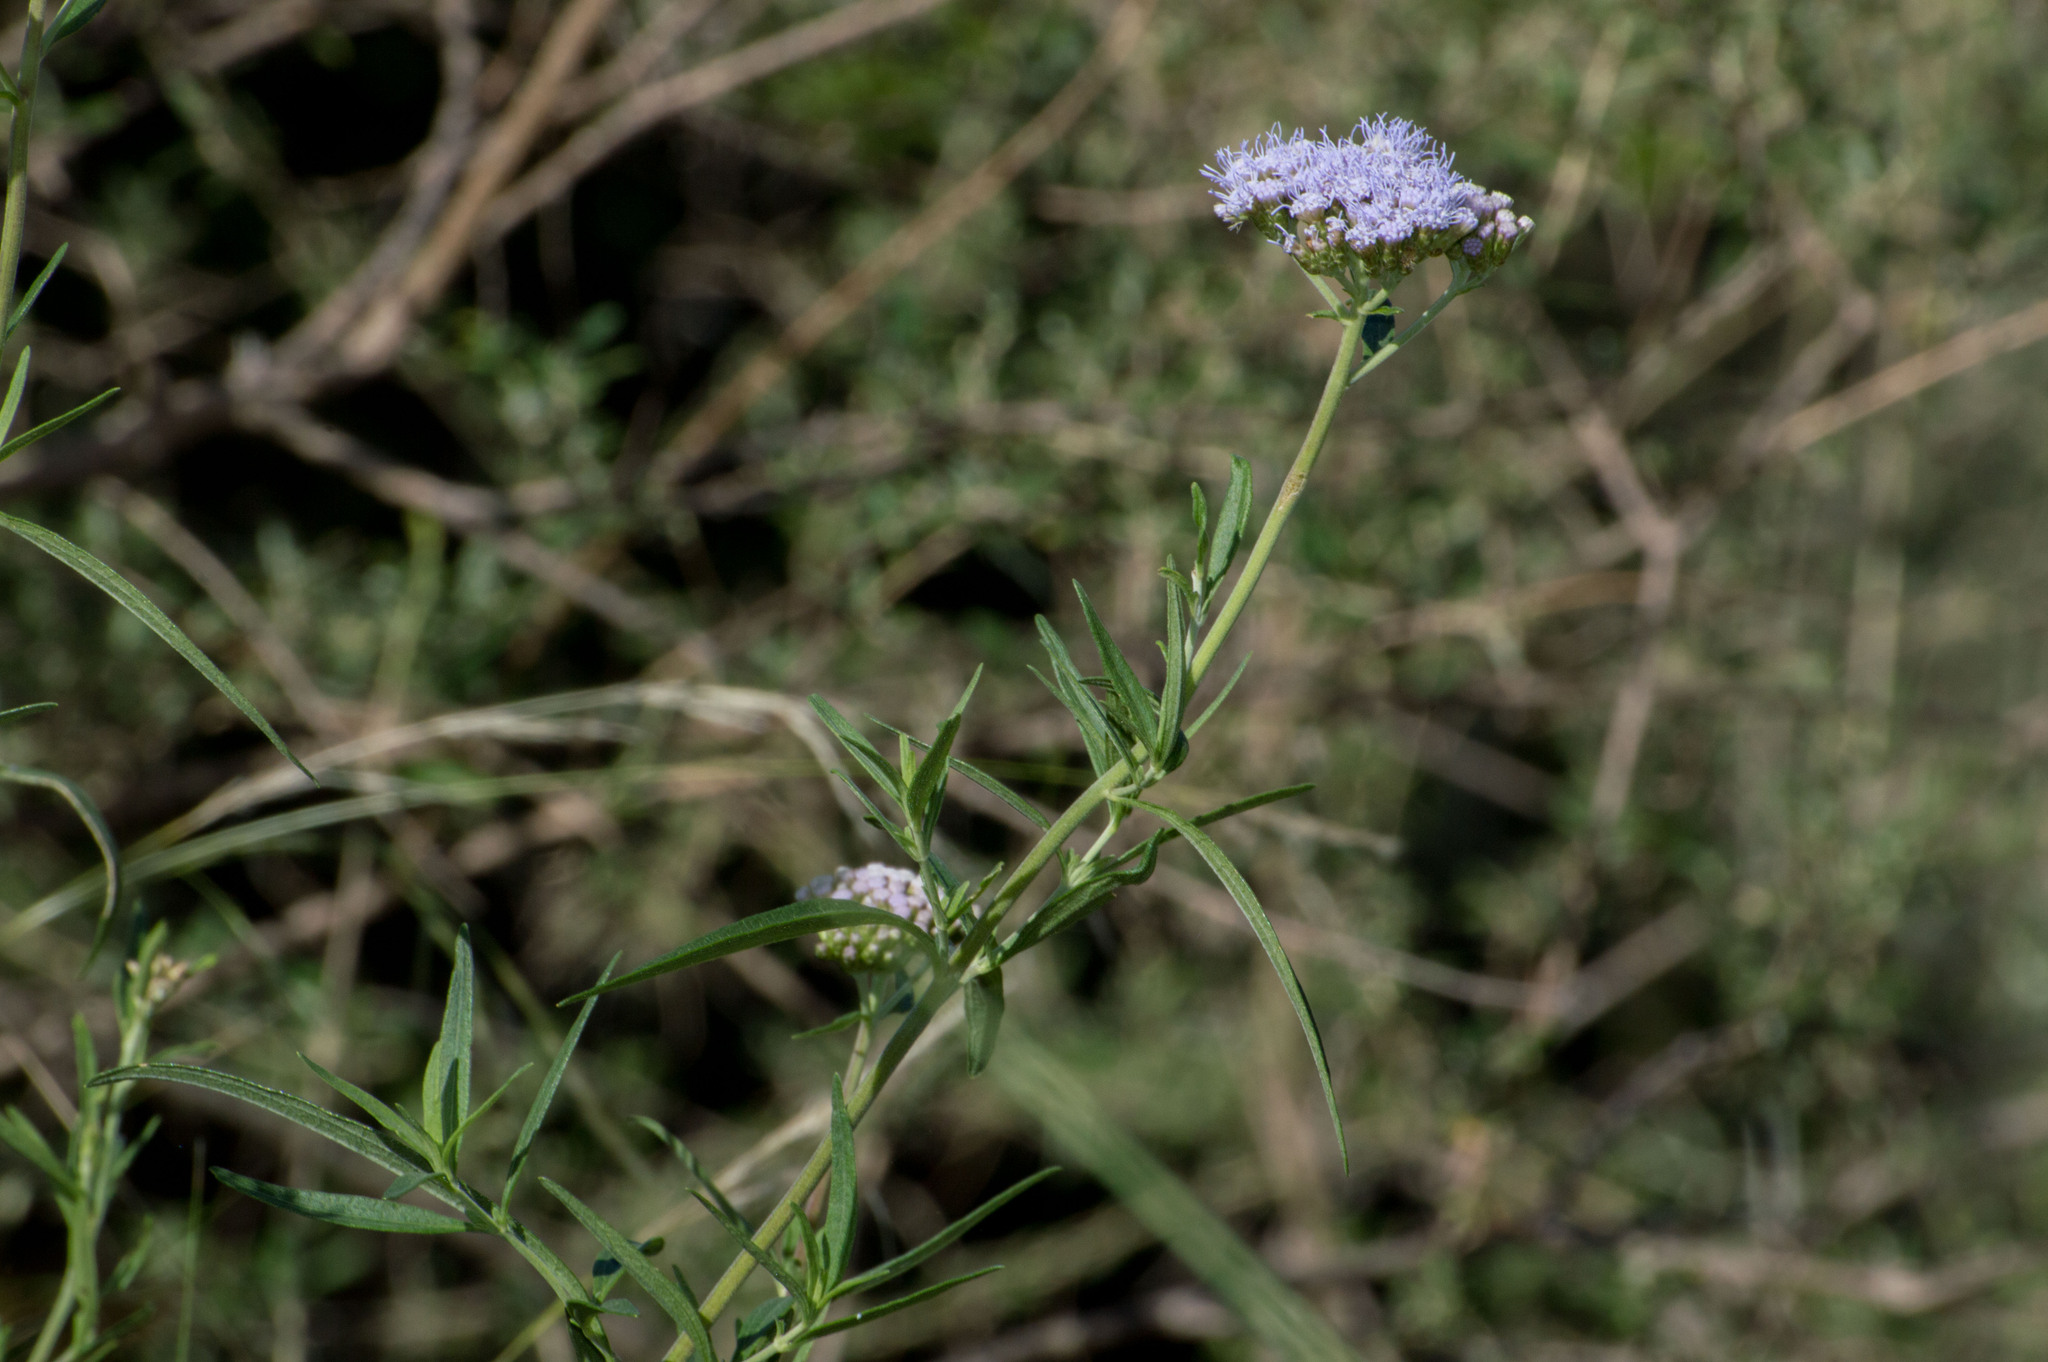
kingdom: Plantae
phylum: Tracheophyta
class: Magnoliopsida
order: Asterales
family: Asteraceae
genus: Chromolaena
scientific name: Chromolaena arnottiana
